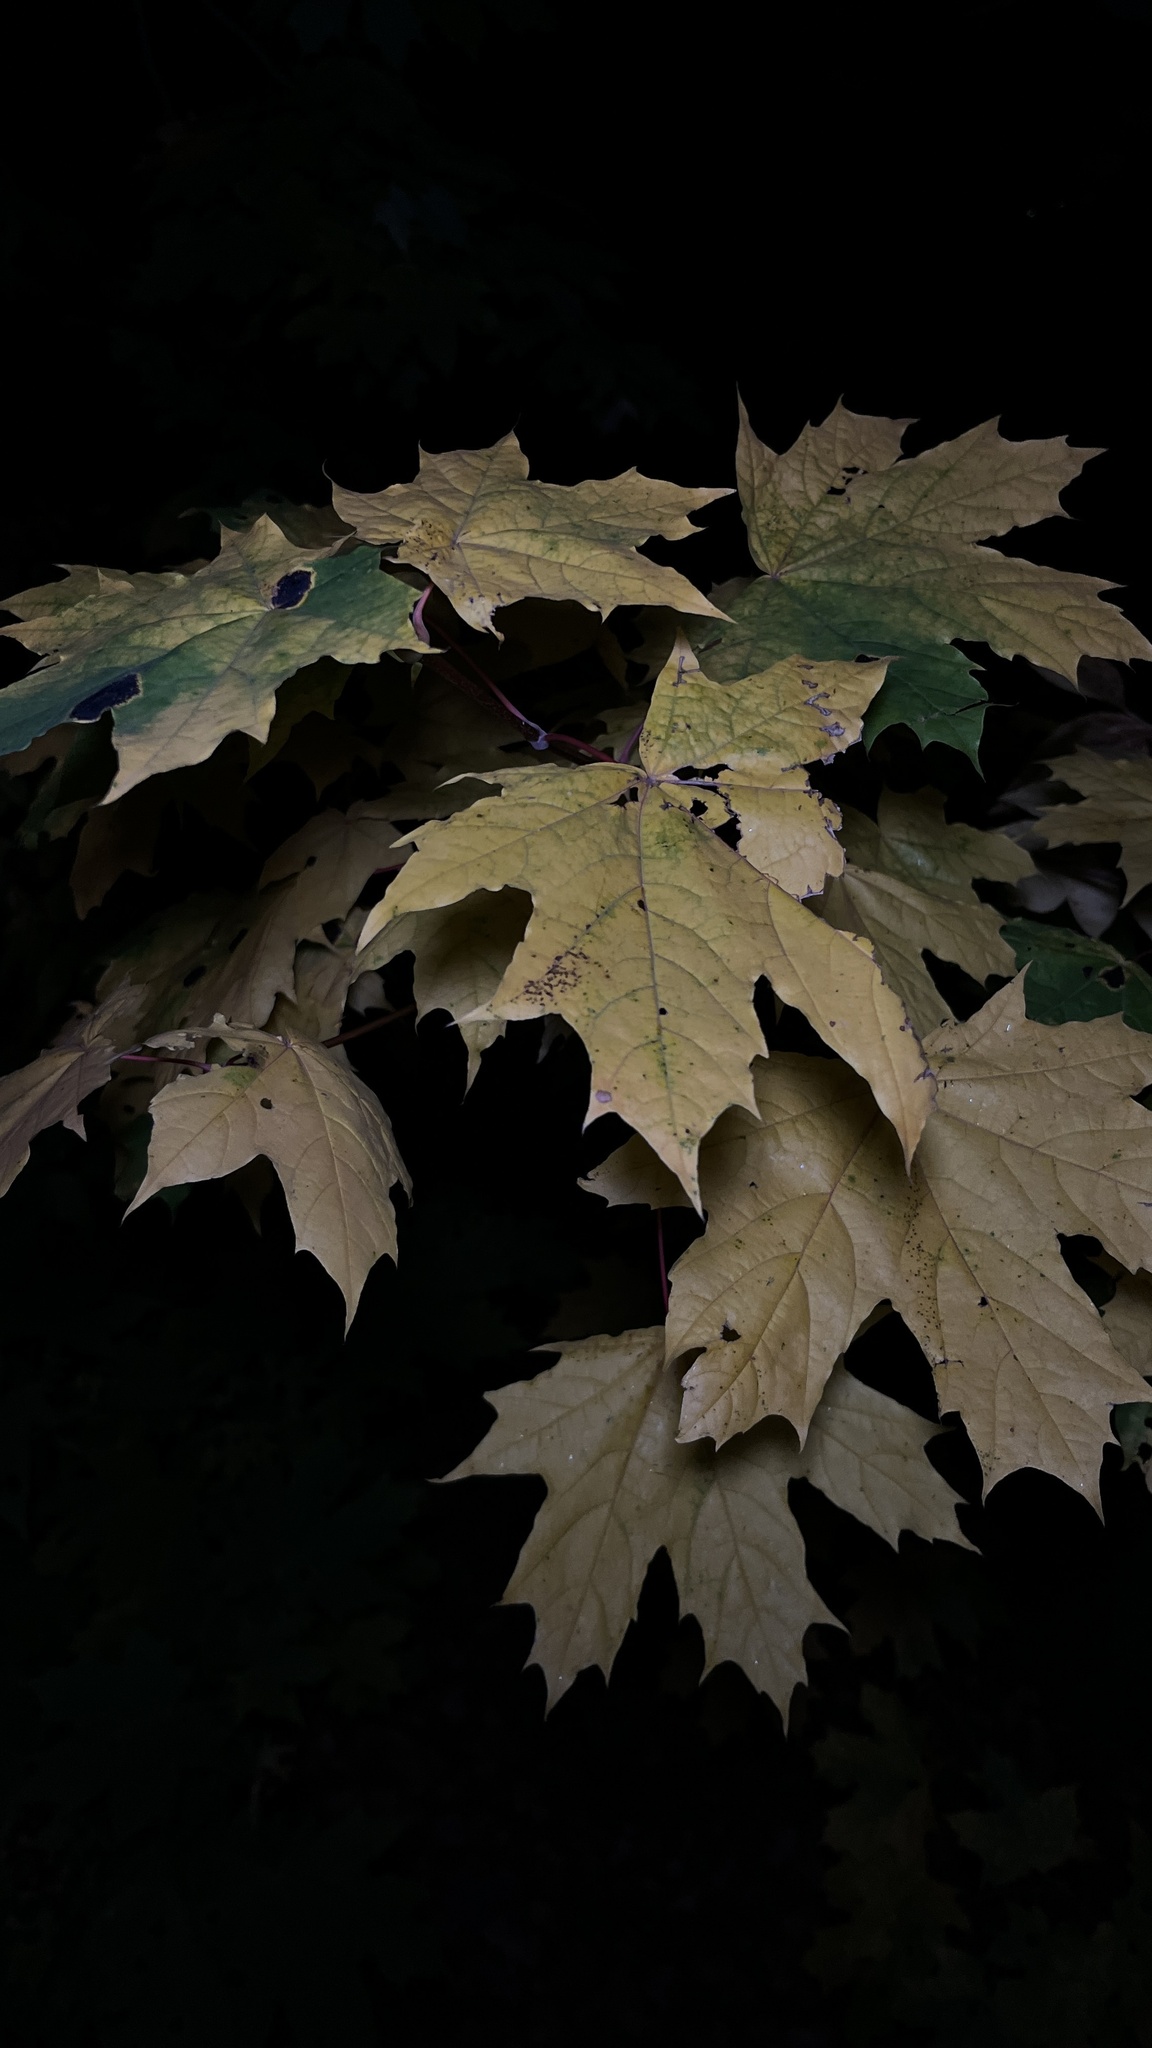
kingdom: Plantae
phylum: Tracheophyta
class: Magnoliopsida
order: Sapindales
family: Sapindaceae
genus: Acer
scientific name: Acer platanoides
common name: Norway maple
